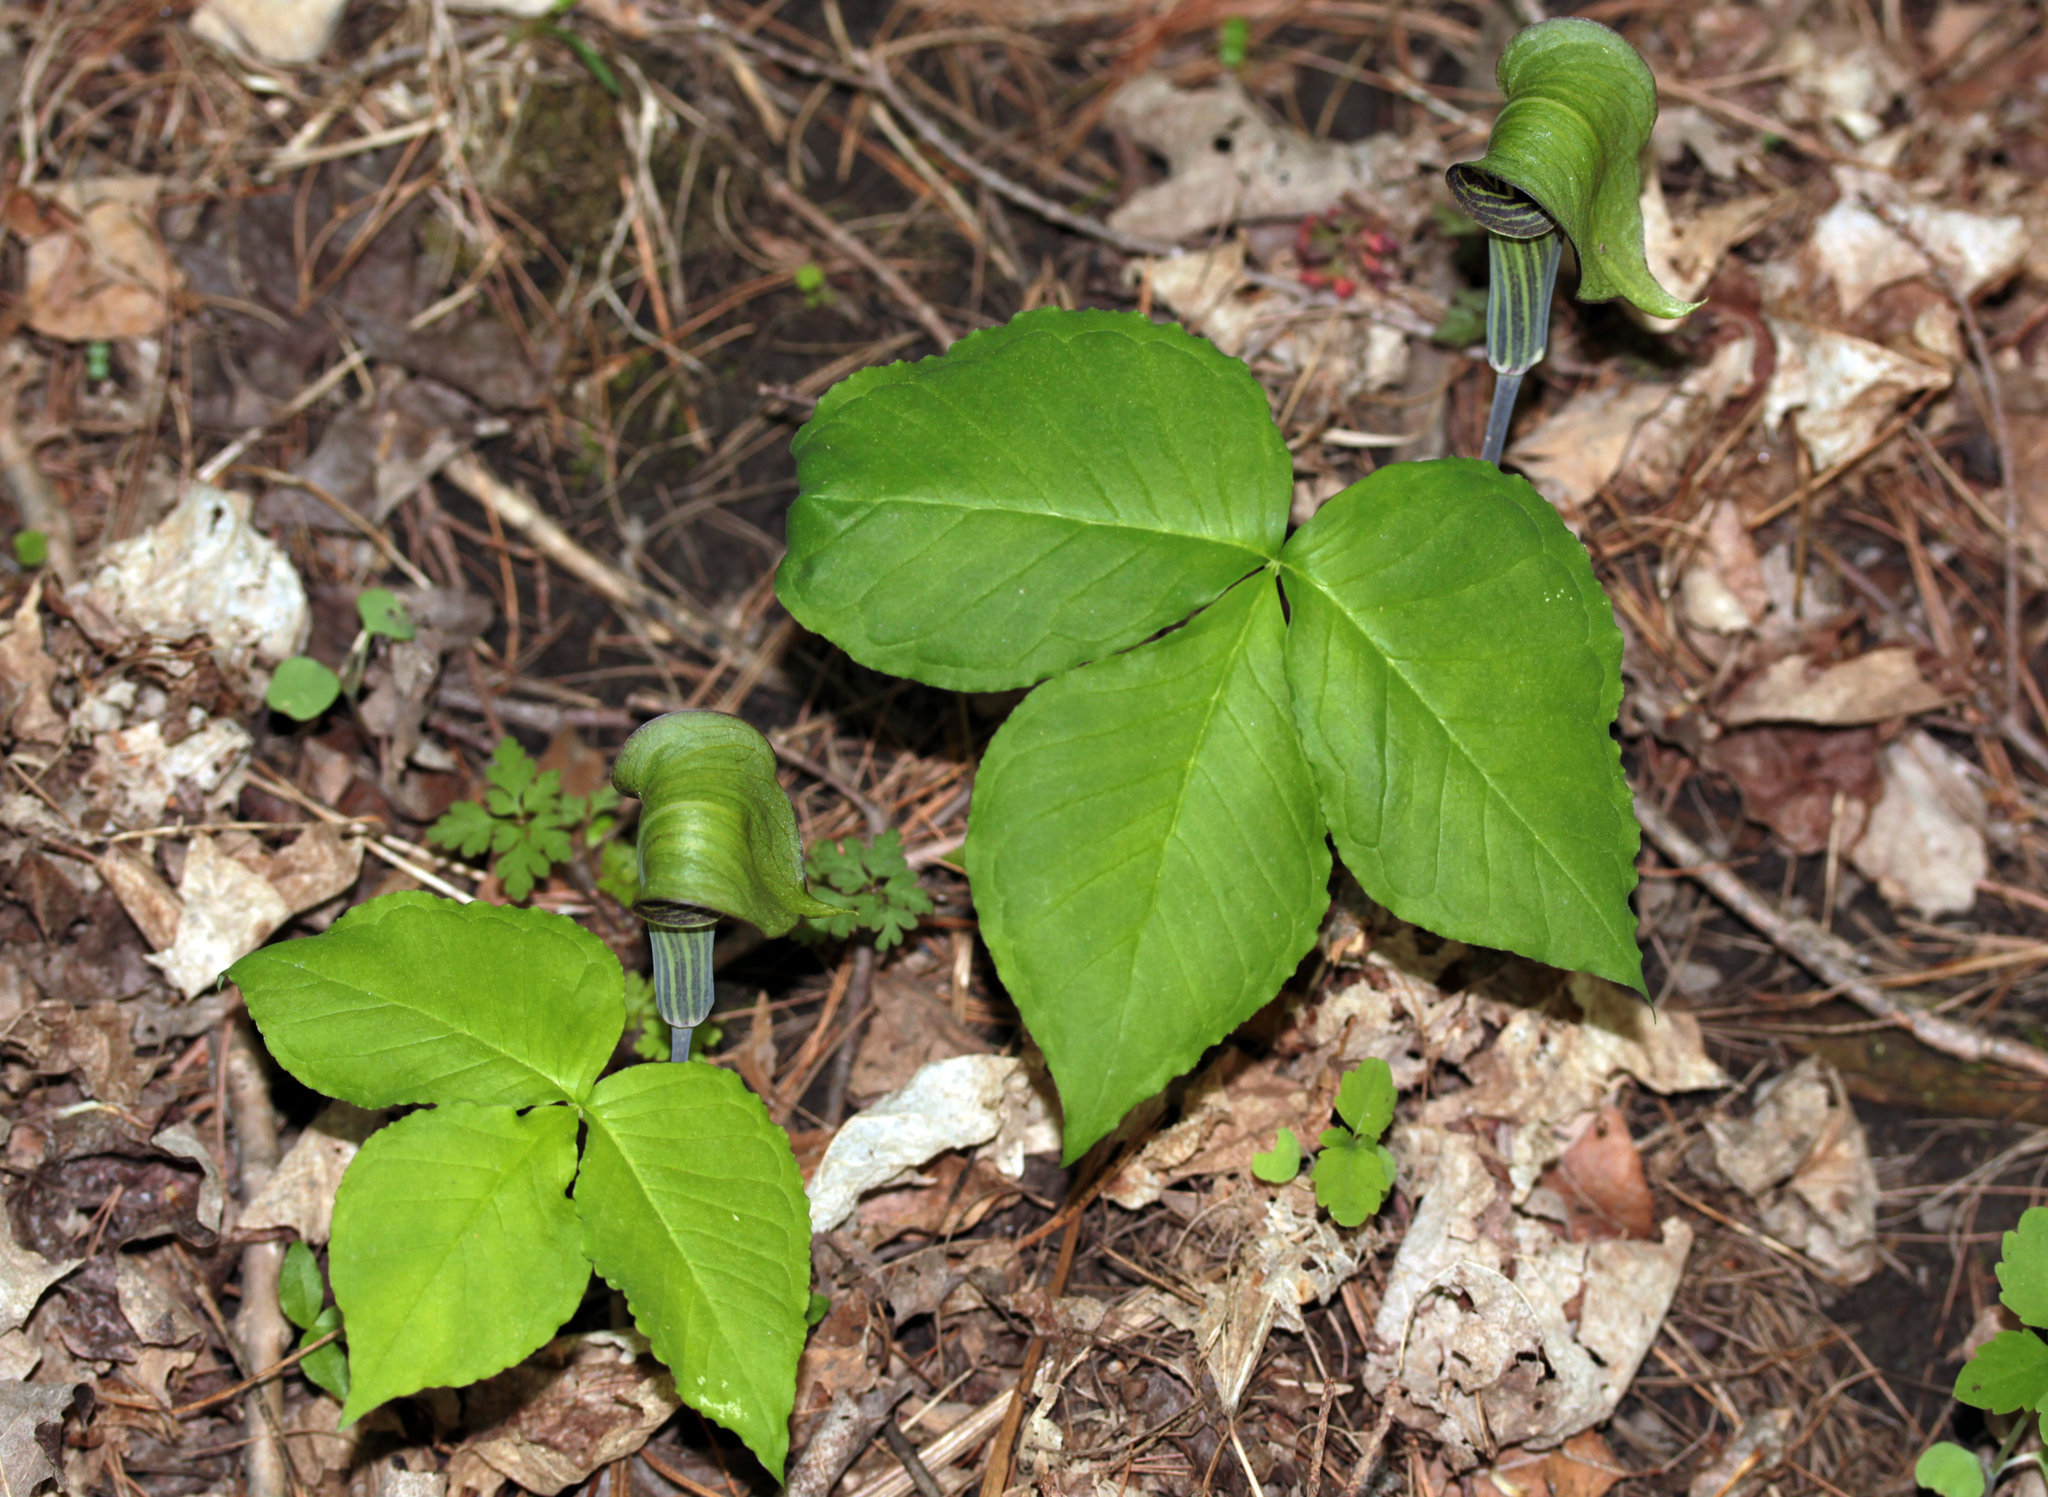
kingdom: Plantae
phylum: Tracheophyta
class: Liliopsida
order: Alismatales
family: Araceae
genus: Arisaema
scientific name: Arisaema triphyllum
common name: Jack-in-the-pulpit
